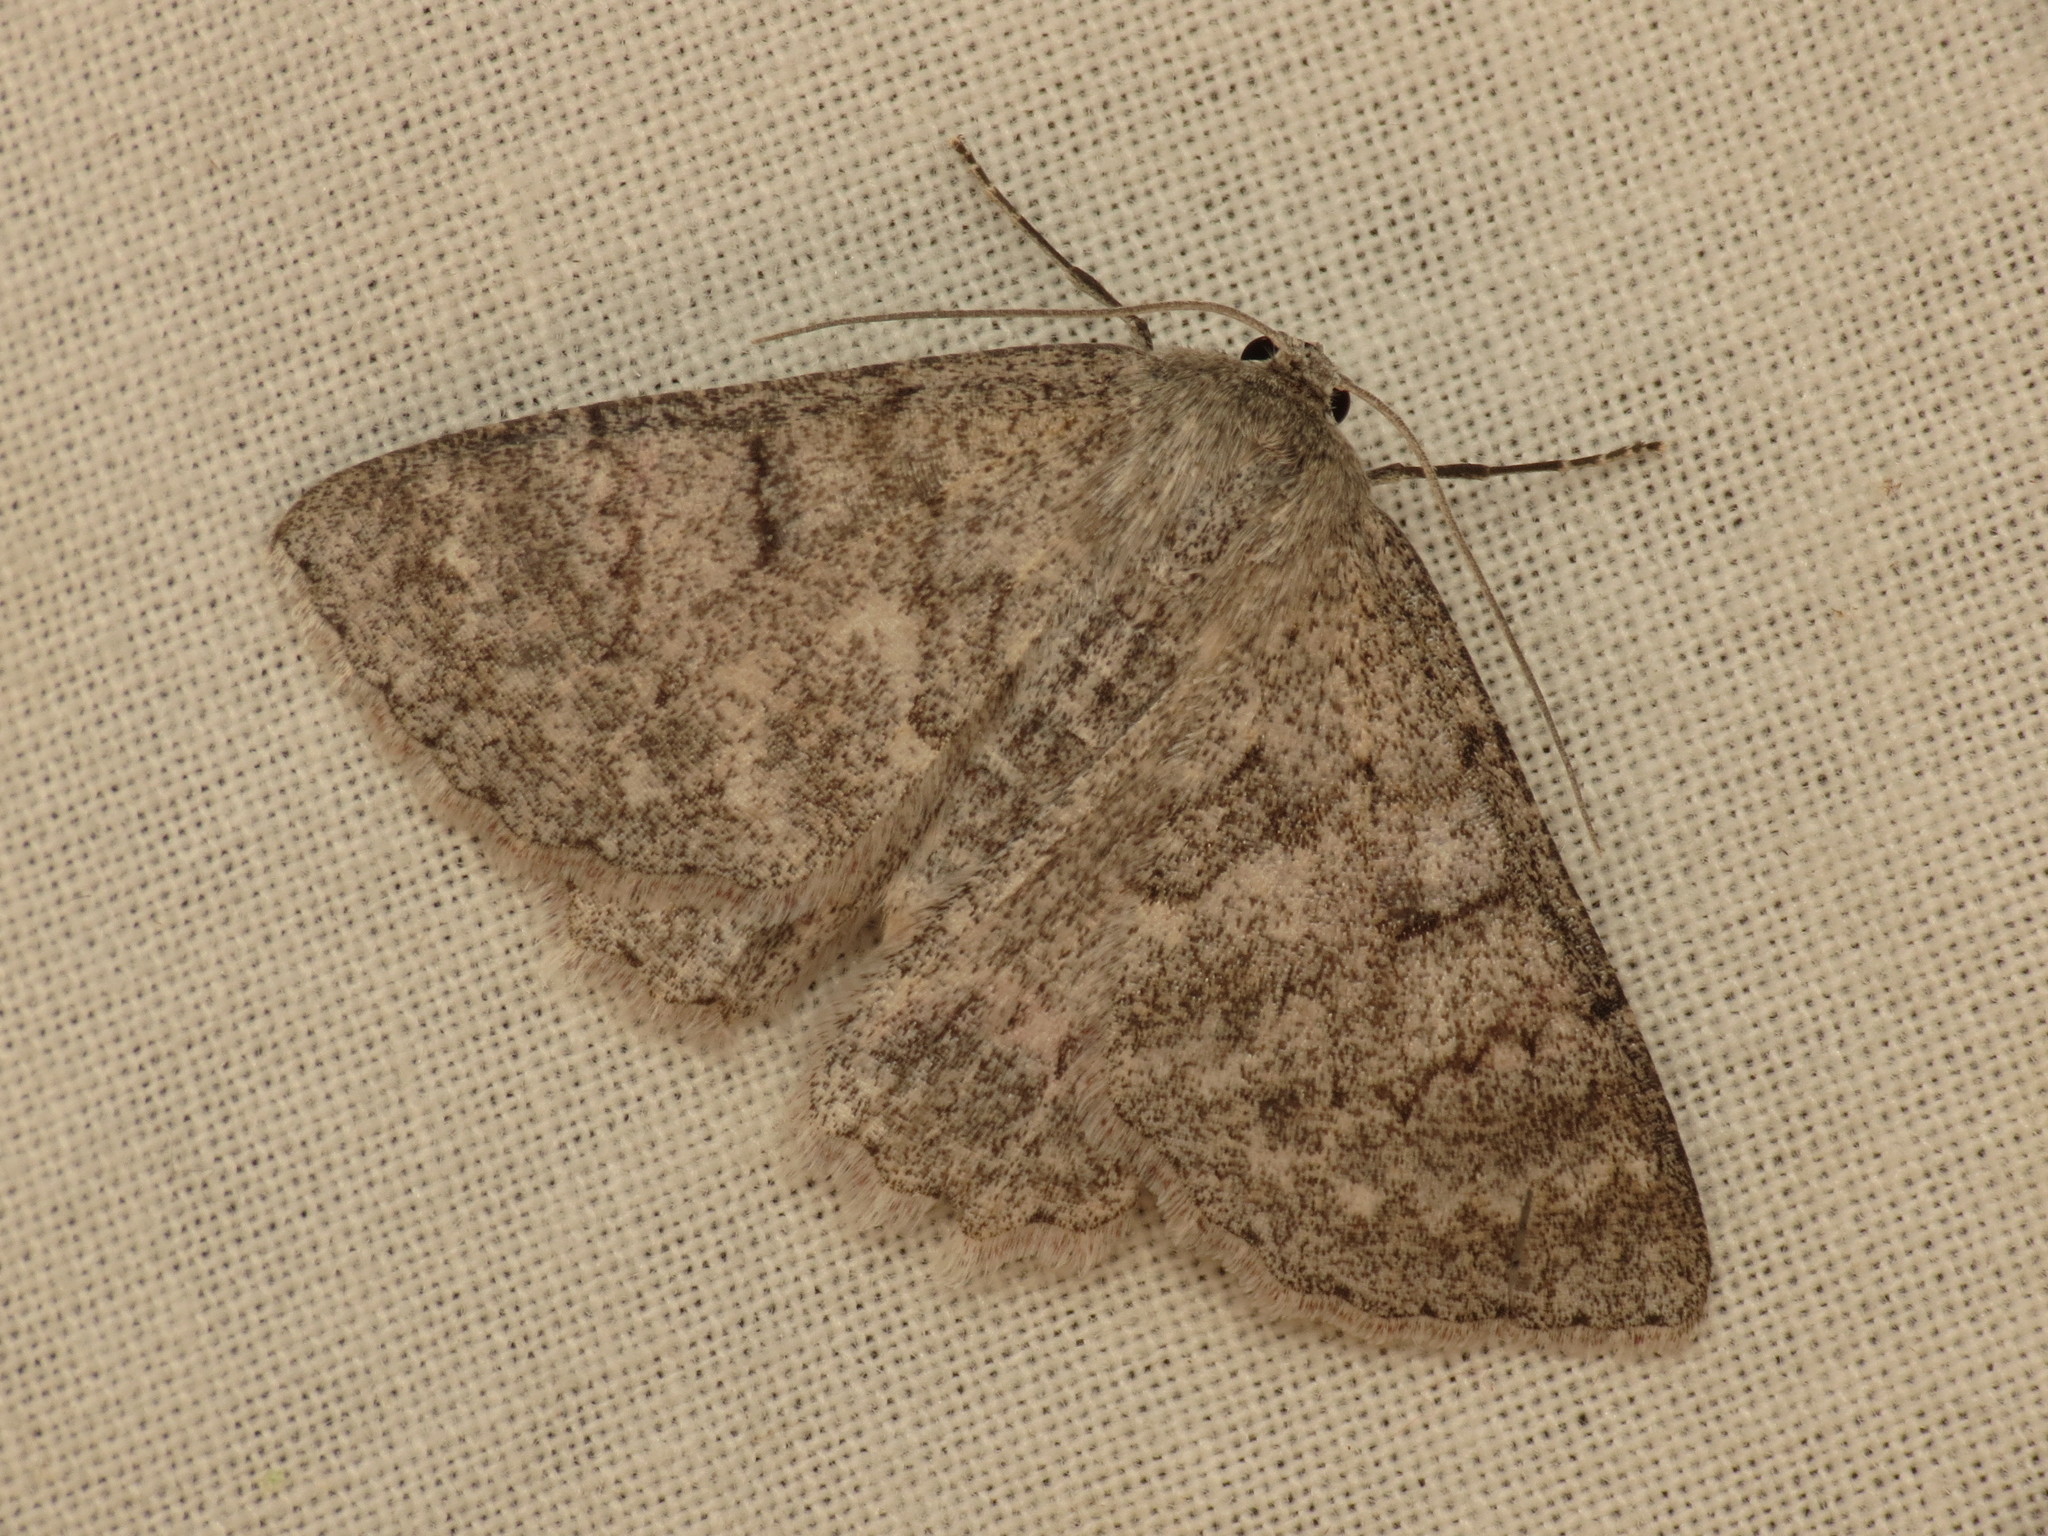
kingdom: Animalia
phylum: Arthropoda
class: Insecta
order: Lepidoptera
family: Geometridae
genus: Crypsiphona
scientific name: Crypsiphona ocultaria
